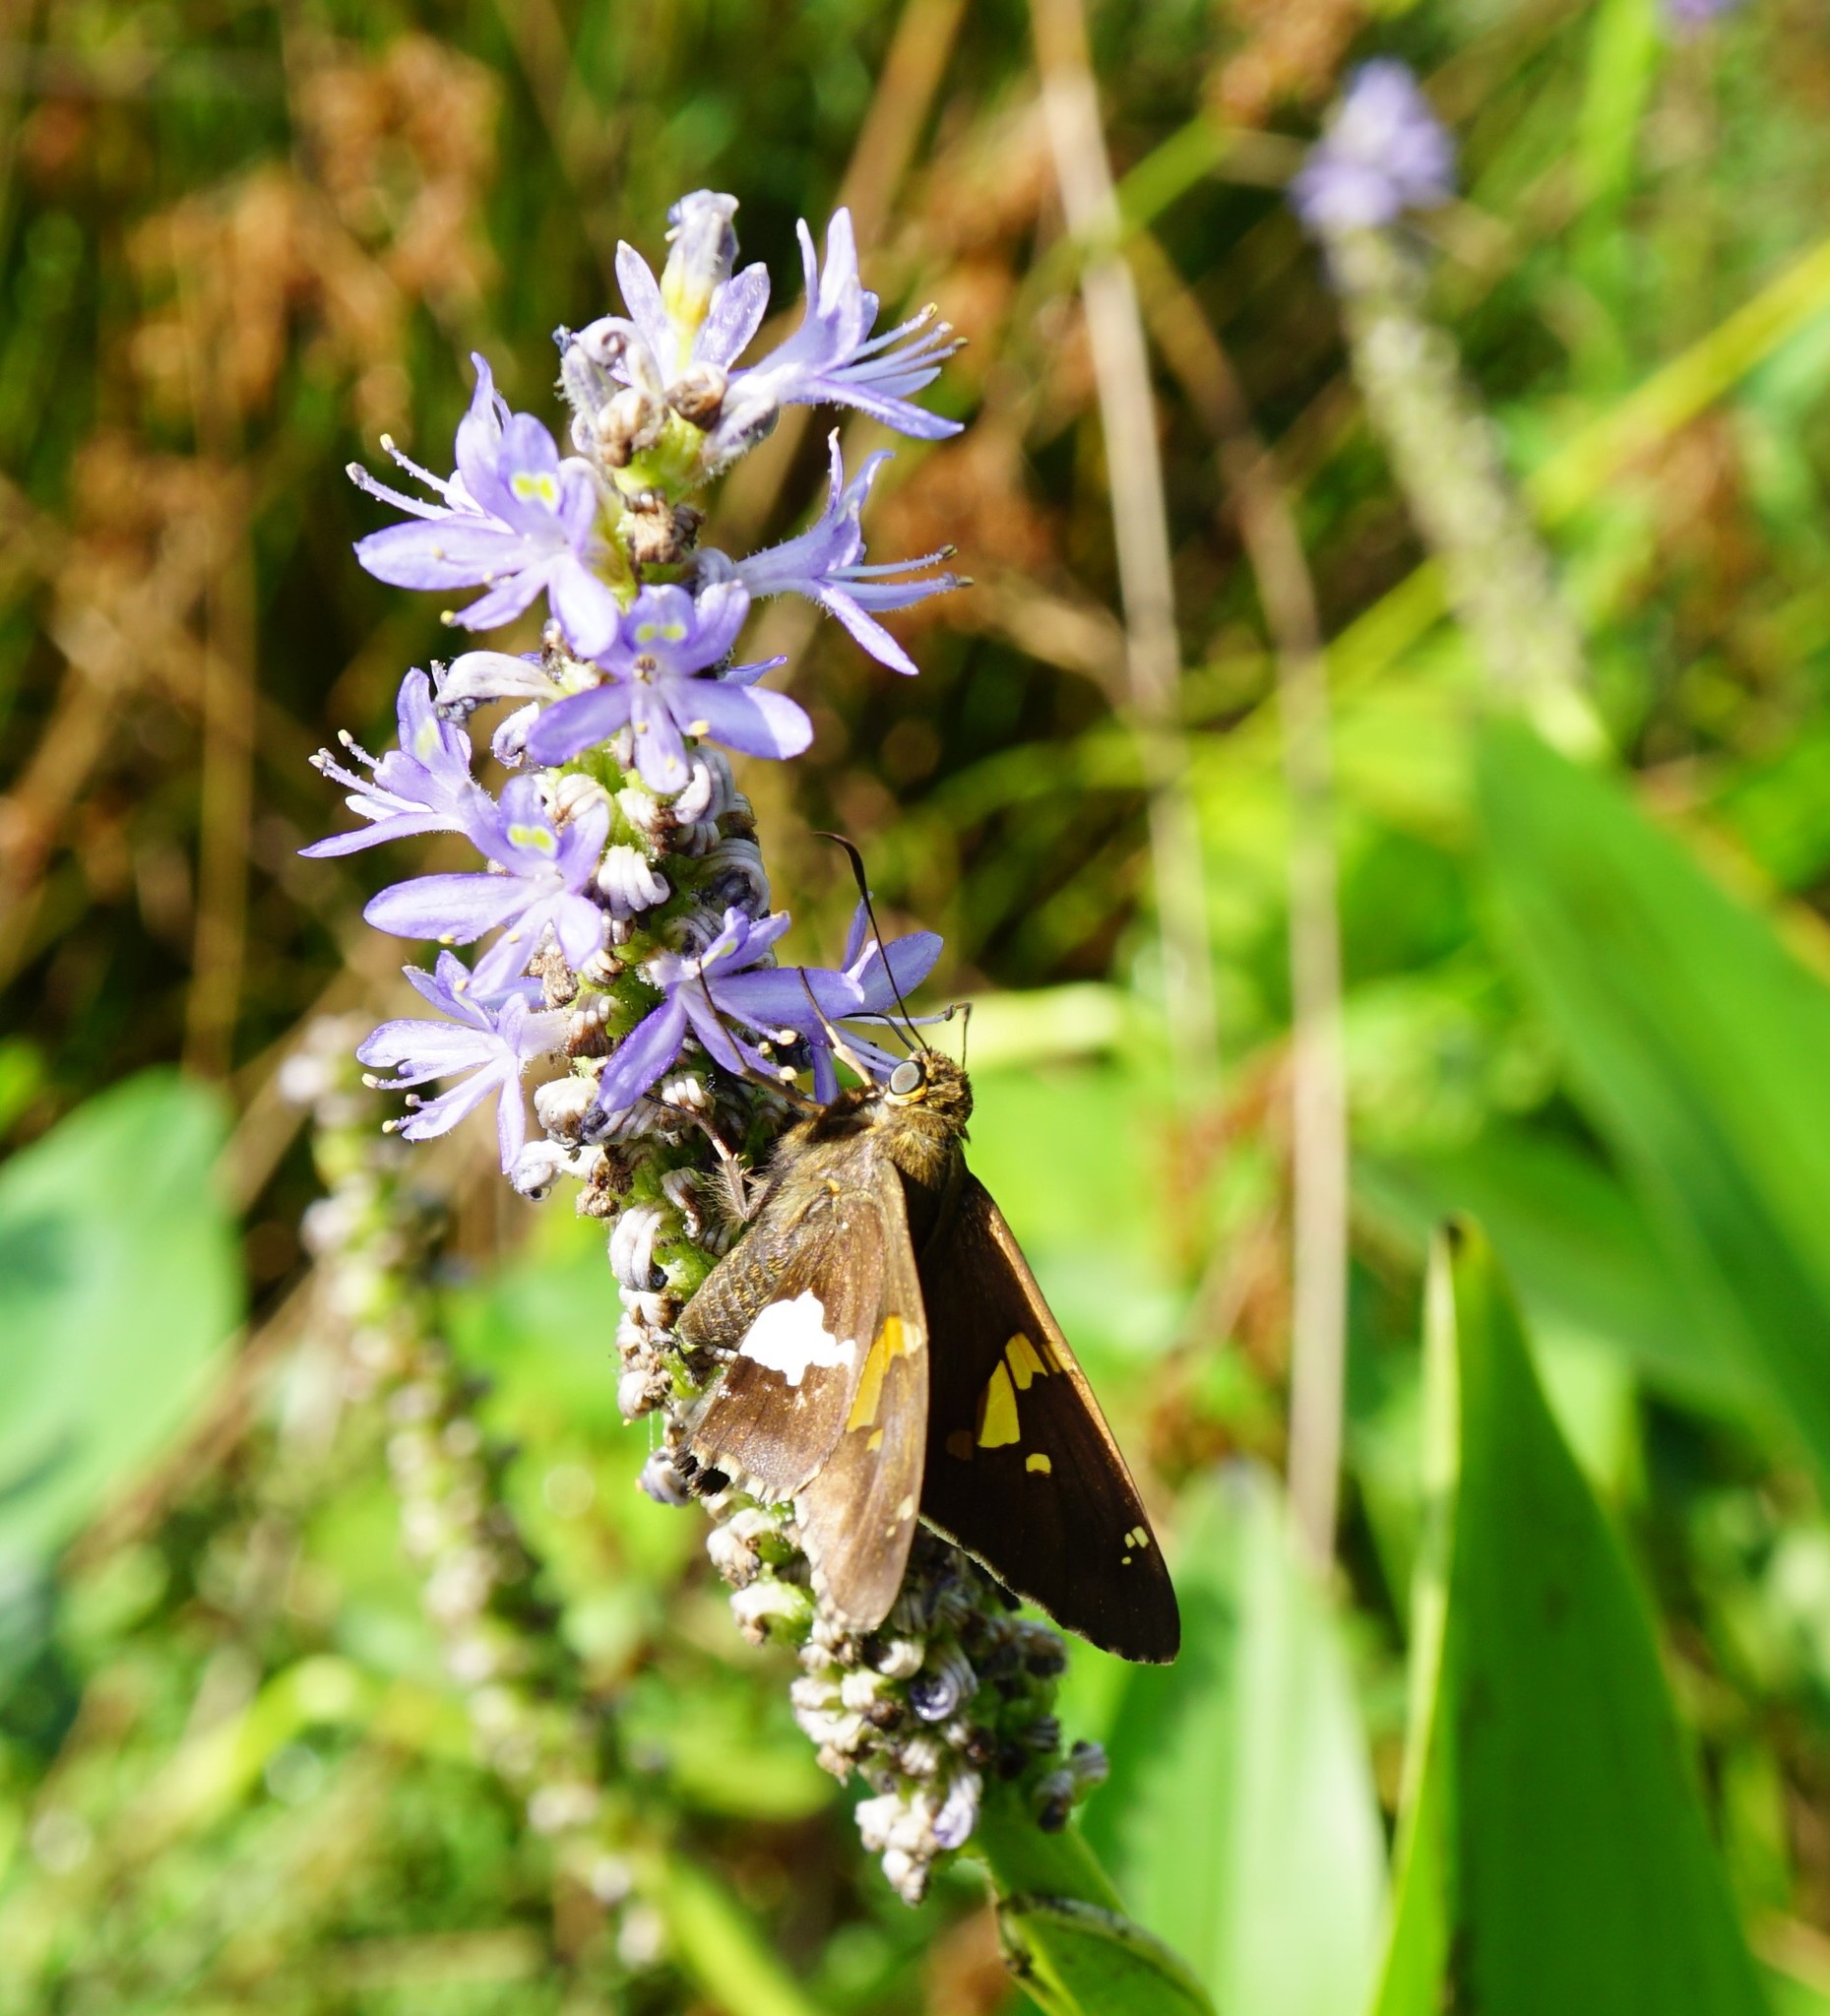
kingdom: Animalia
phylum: Arthropoda
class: Insecta
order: Lepidoptera
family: Hesperiidae
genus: Epargyreus
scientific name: Epargyreus clarus
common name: Silver-spotted skipper
